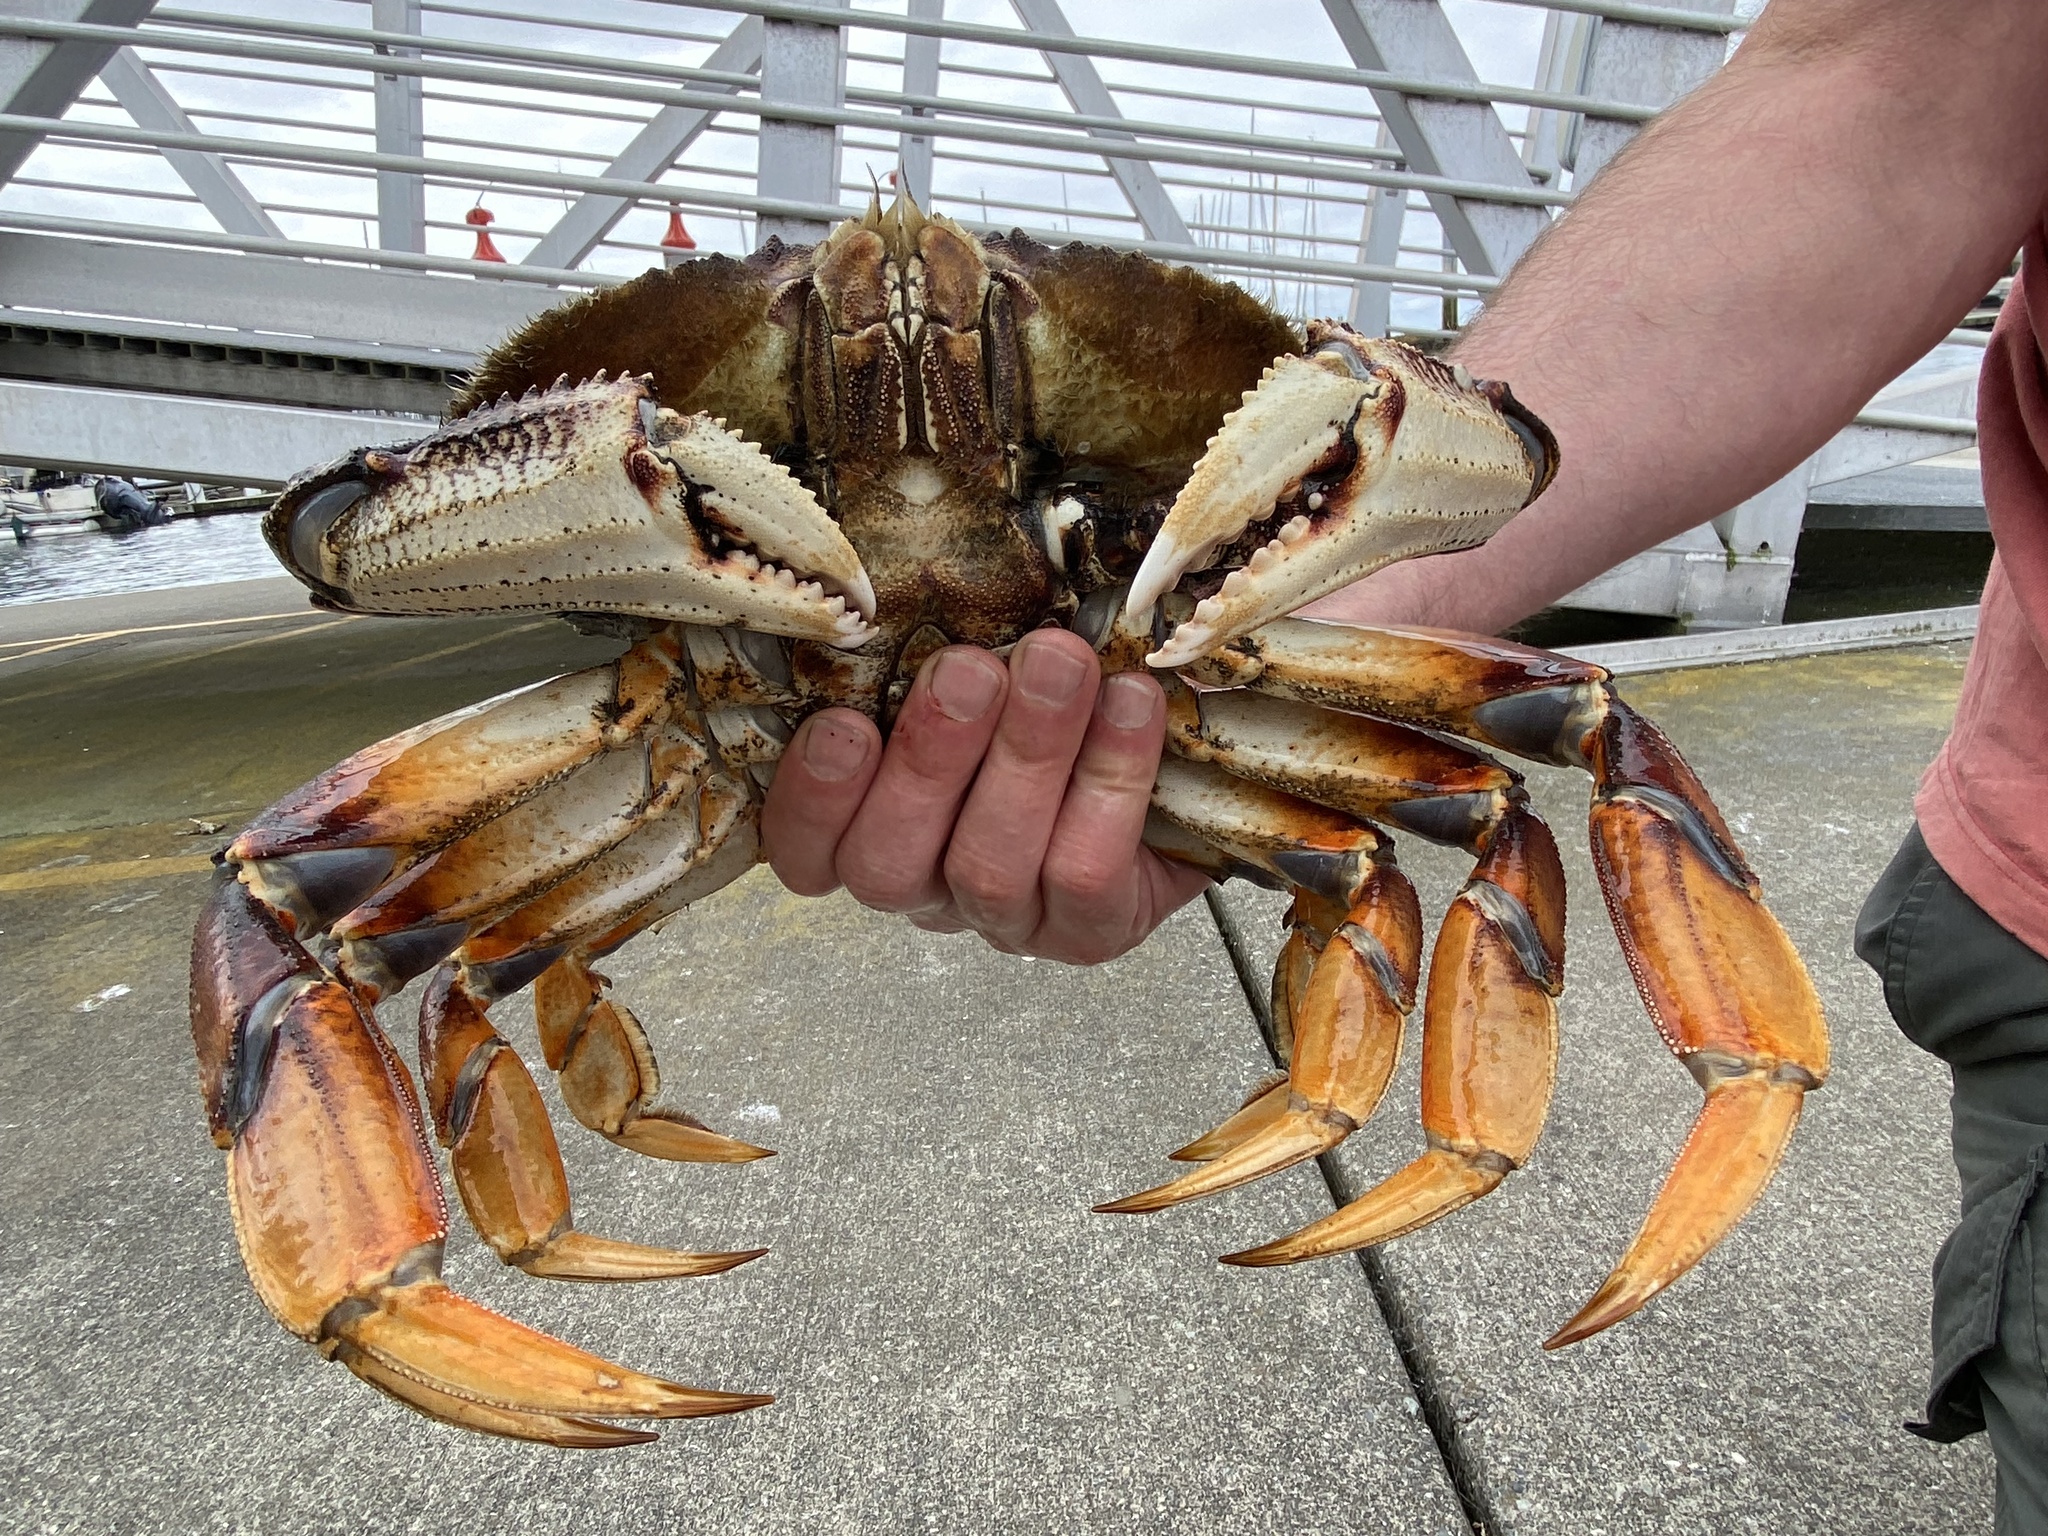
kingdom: Animalia
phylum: Arthropoda
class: Malacostraca
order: Decapoda
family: Cancridae
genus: Metacarcinus
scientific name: Metacarcinus magister
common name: Californian crab
